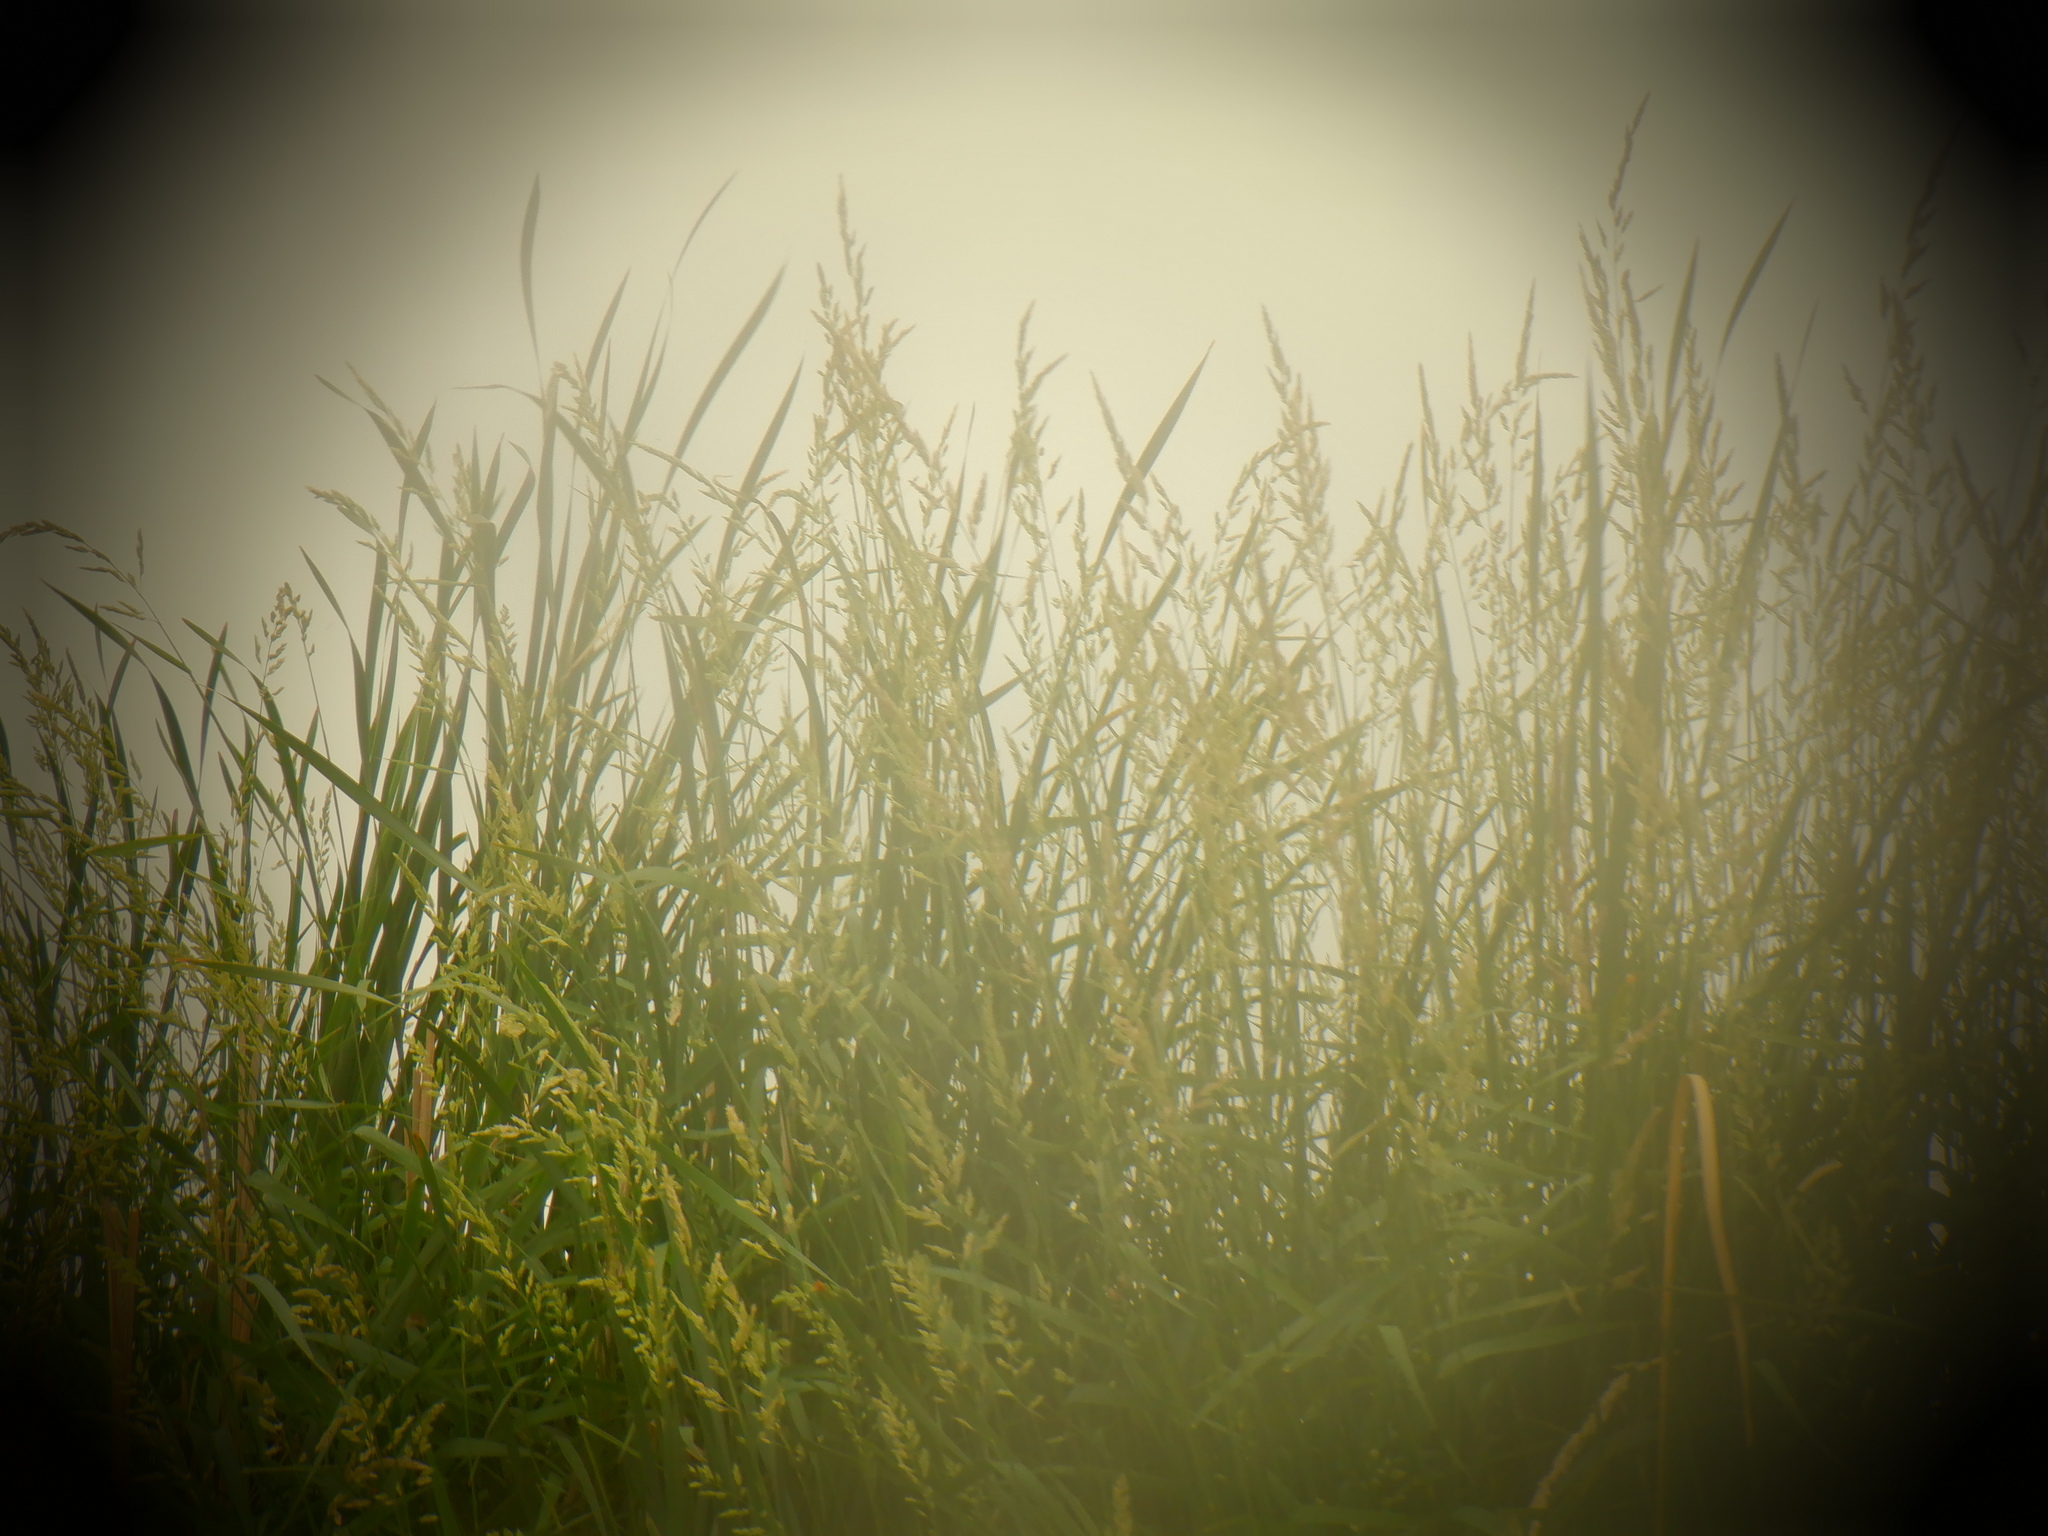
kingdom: Plantae
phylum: Tracheophyta
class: Liliopsida
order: Poales
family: Poaceae
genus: Phalaris
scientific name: Phalaris arundinacea
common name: Reed canary-grass
